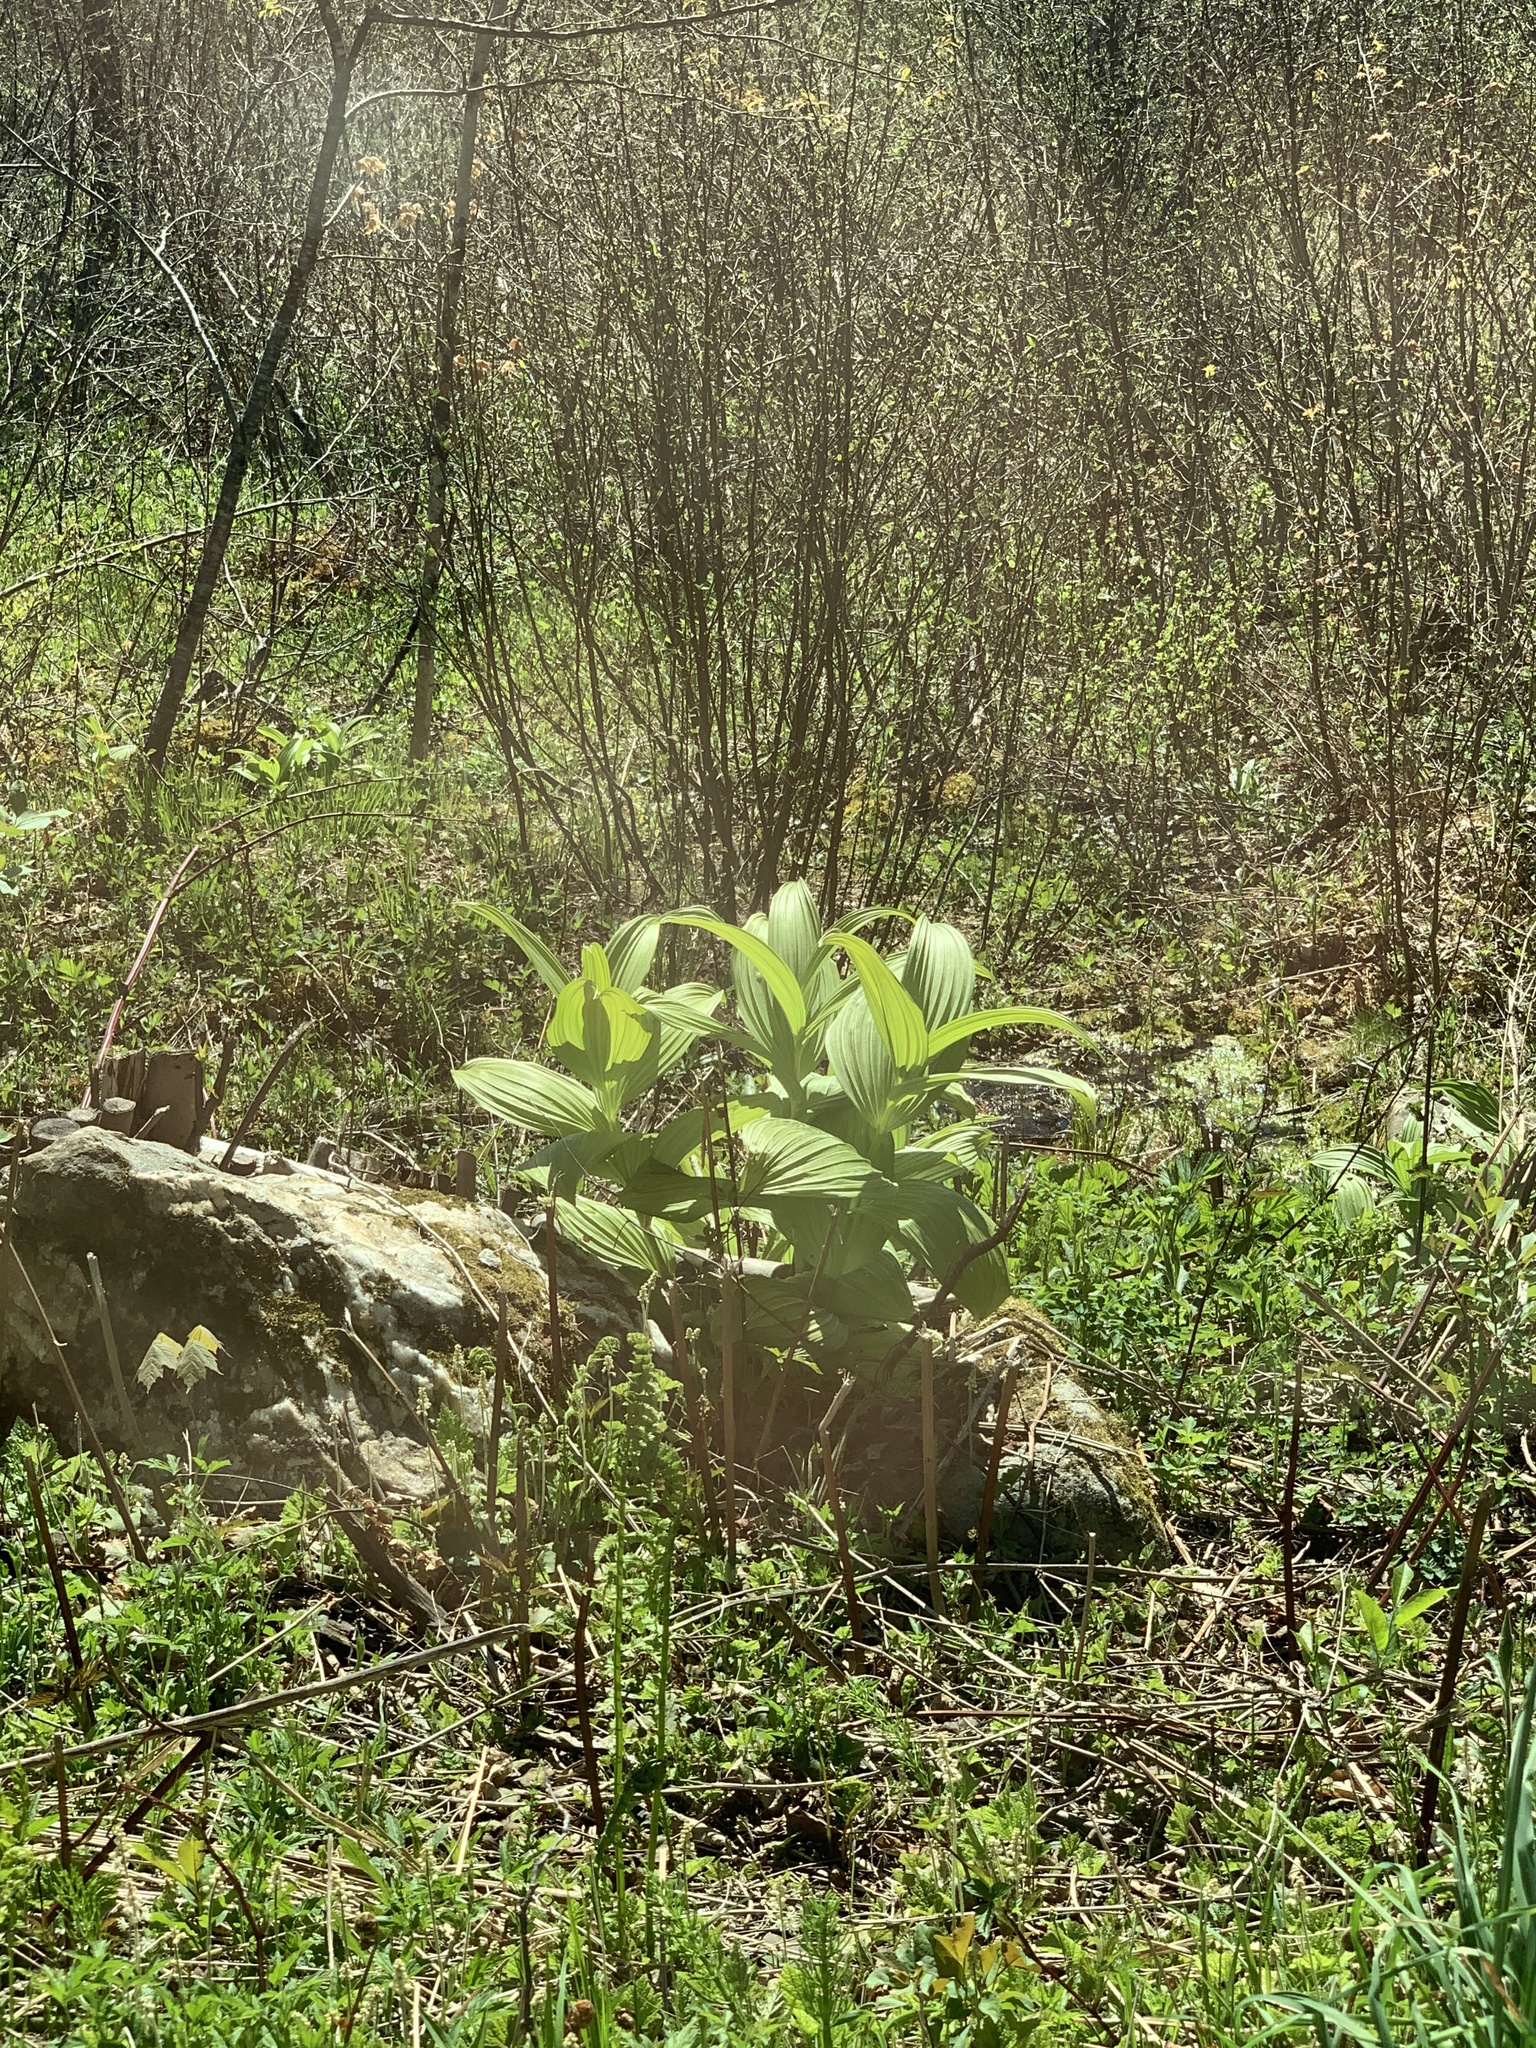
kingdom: Plantae
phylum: Tracheophyta
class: Liliopsida
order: Liliales
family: Melanthiaceae
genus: Veratrum
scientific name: Veratrum viride
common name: American false hellebore
